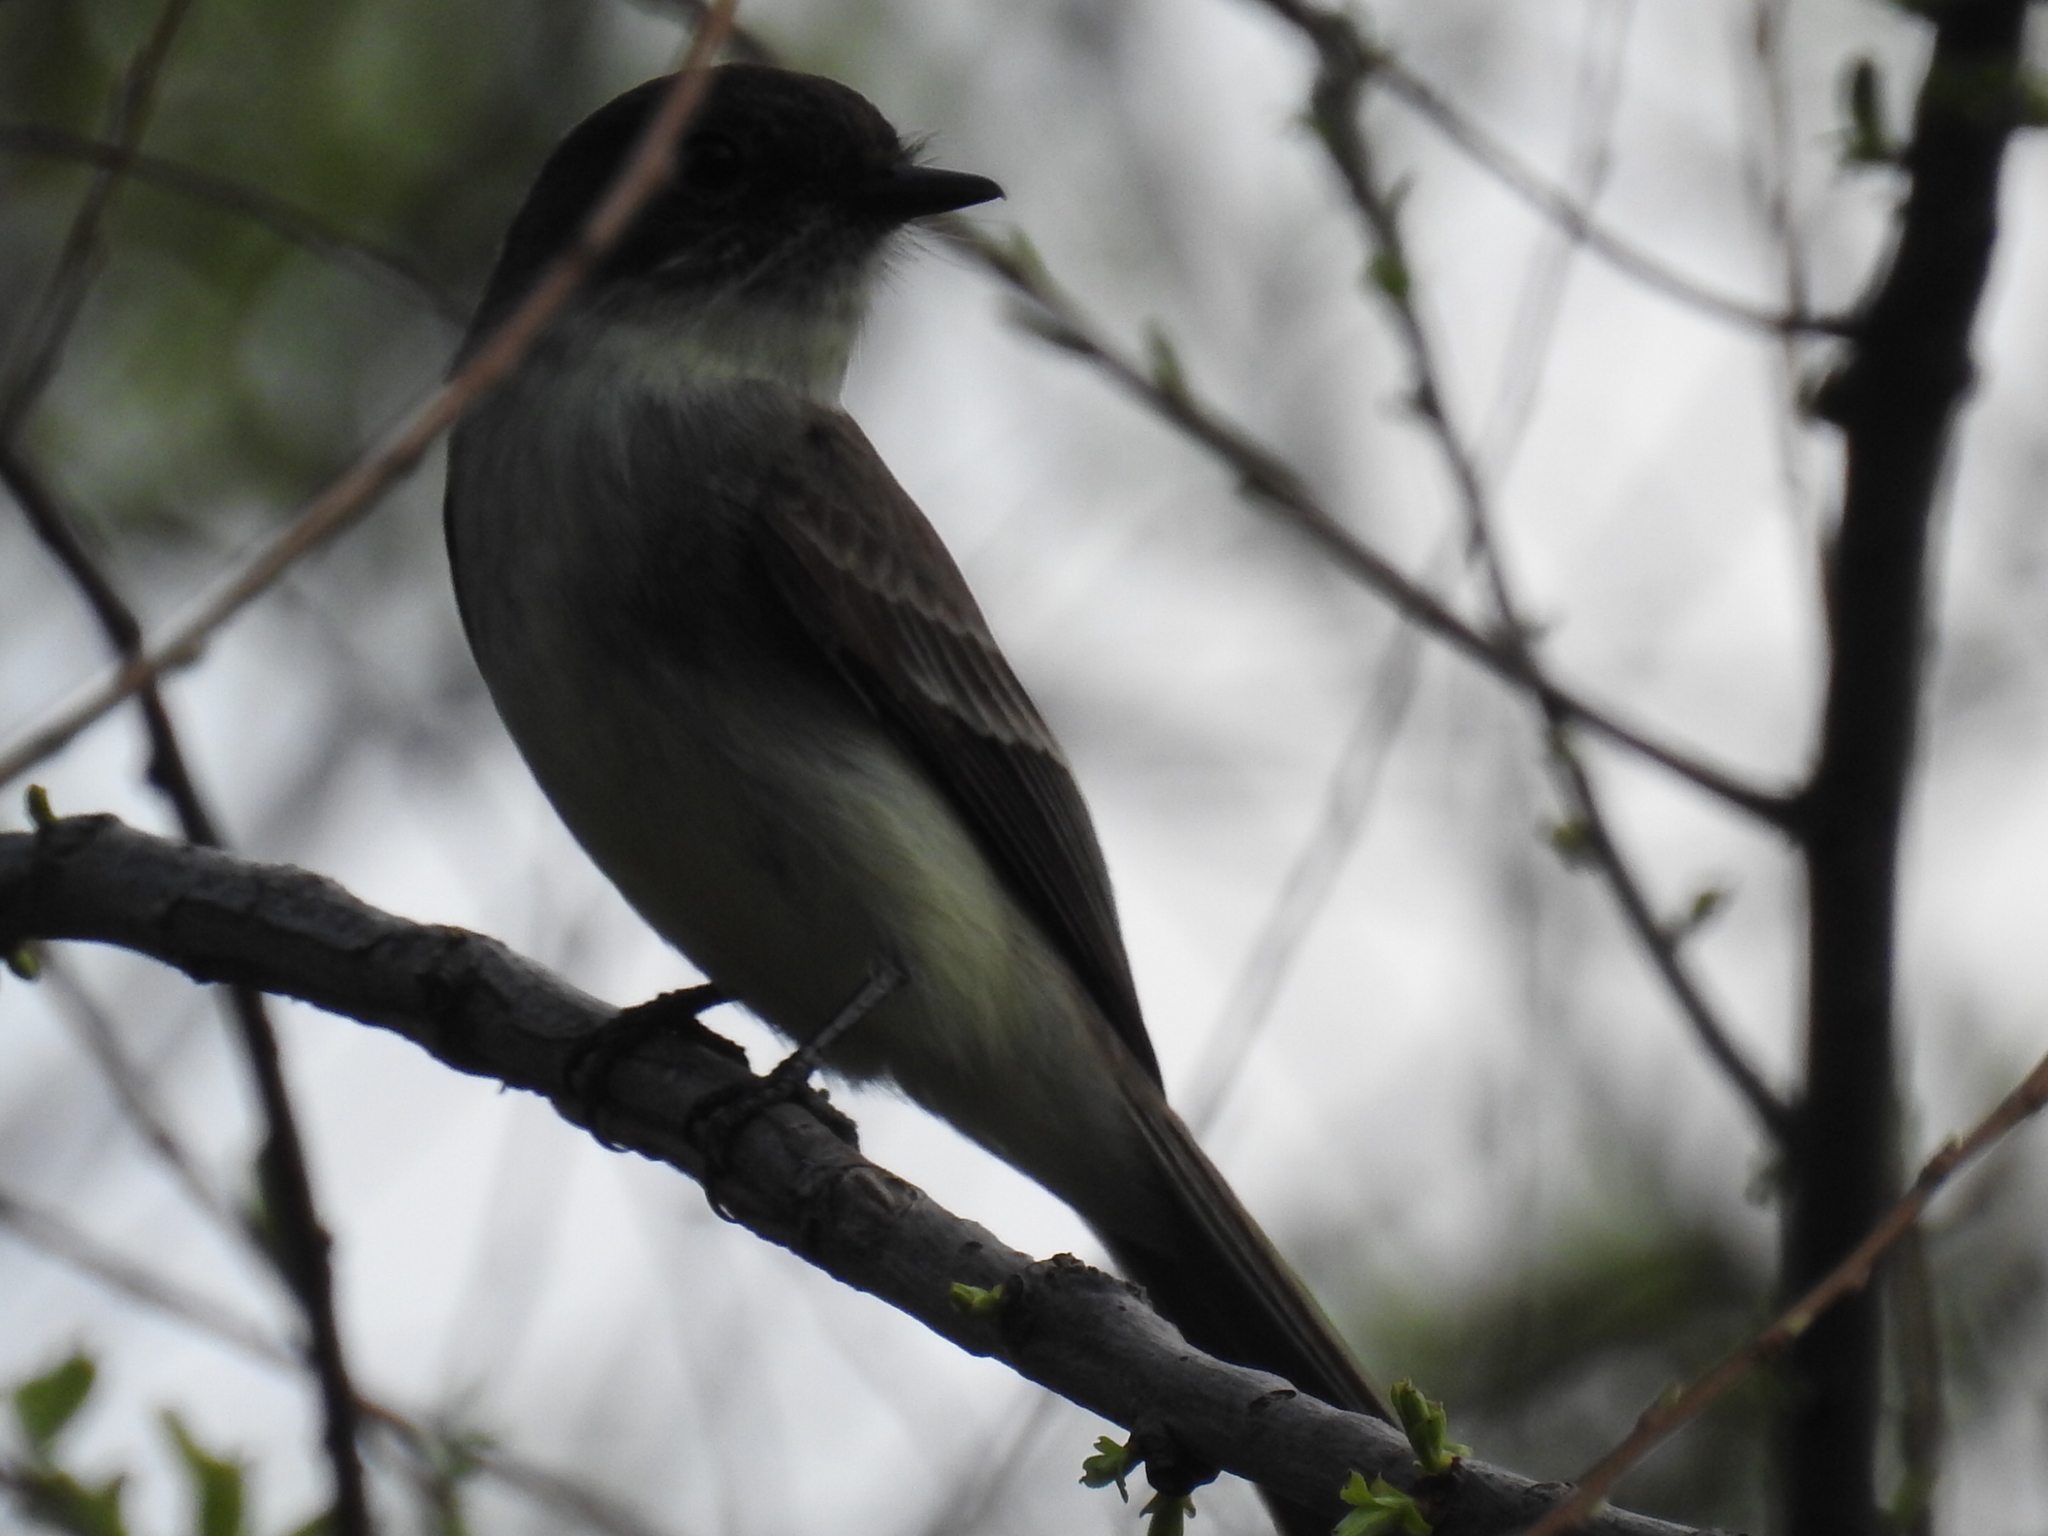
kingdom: Animalia
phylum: Chordata
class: Aves
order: Passeriformes
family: Tyrannidae
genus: Sayornis
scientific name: Sayornis phoebe
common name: Eastern phoebe
